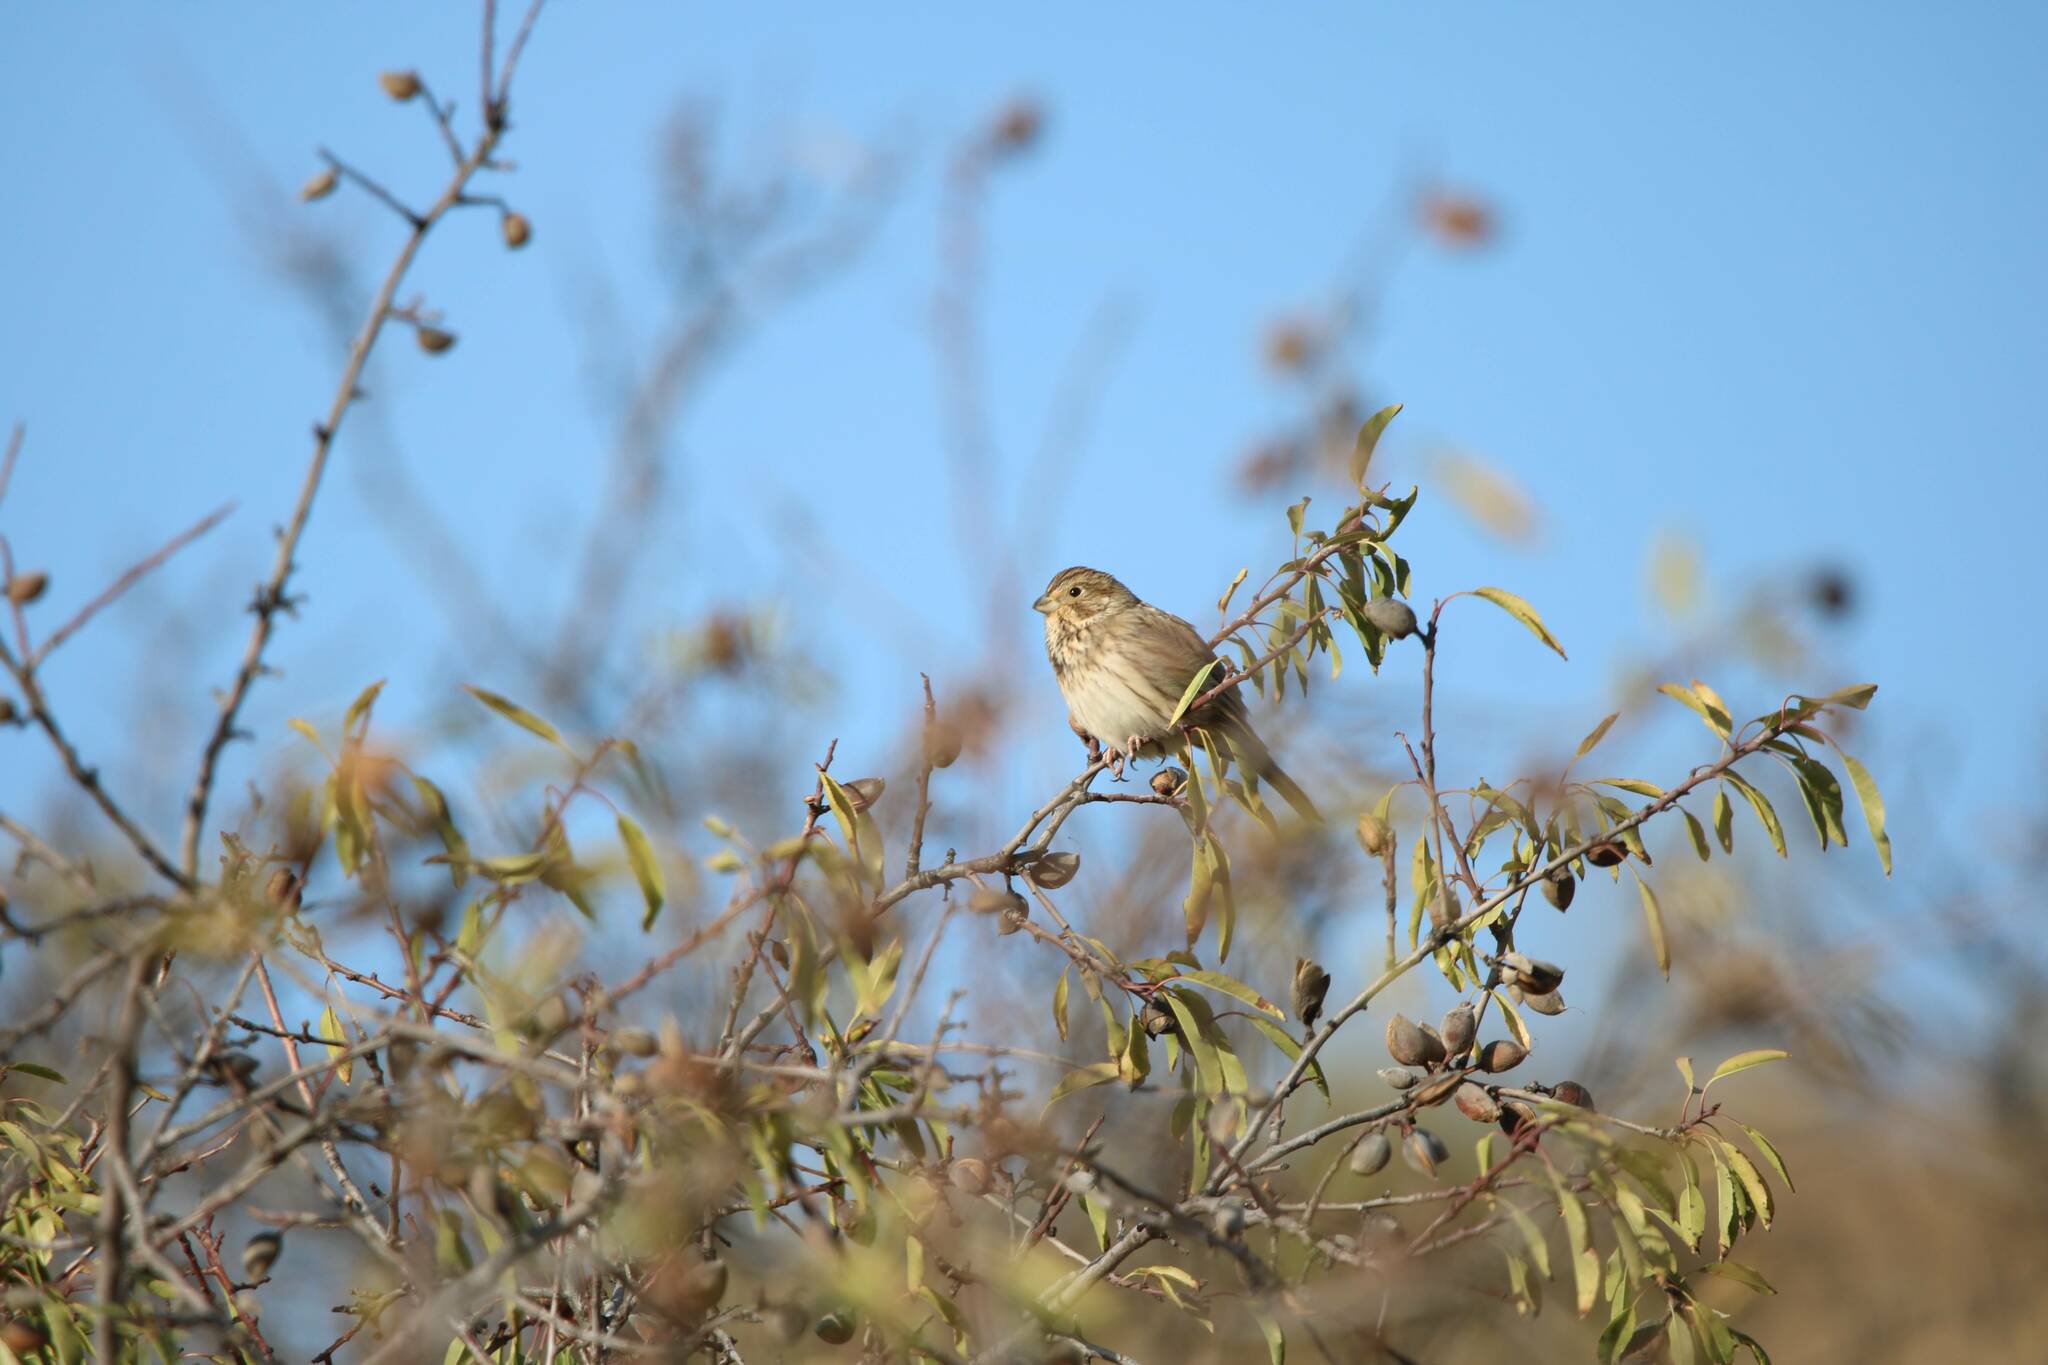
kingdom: Animalia
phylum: Chordata
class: Aves
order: Passeriformes
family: Emberizidae
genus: Emberiza
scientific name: Emberiza calandra
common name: Corn bunting
